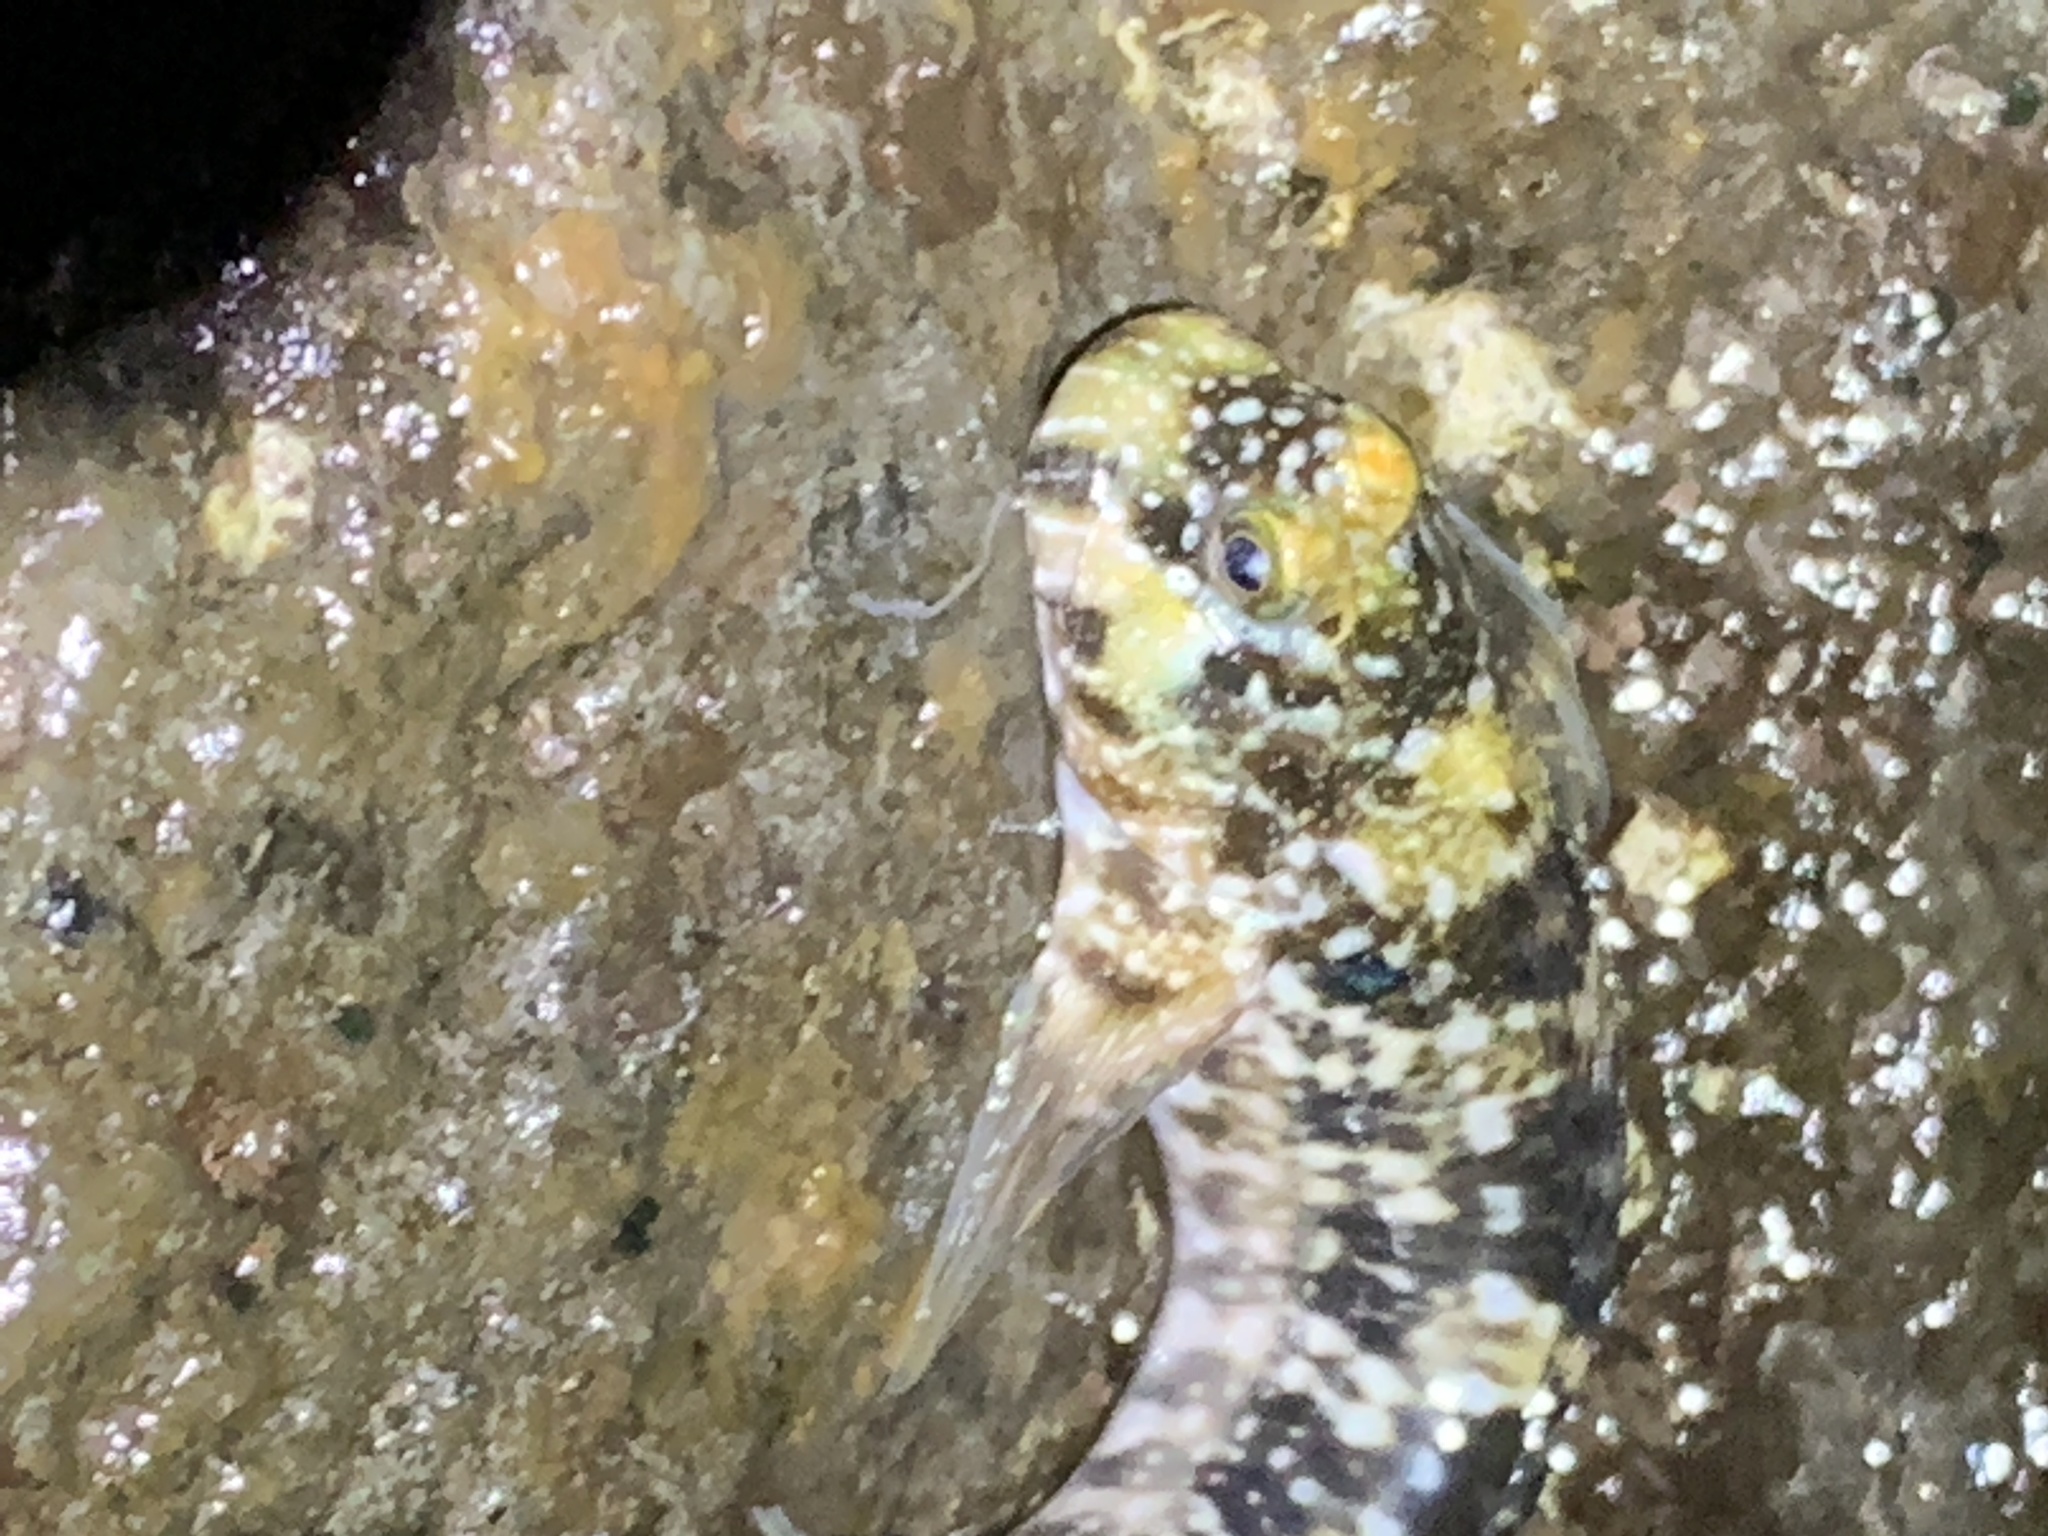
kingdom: Animalia
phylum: Chordata
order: Perciformes
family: Blenniidae
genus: Entomacrodus
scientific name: Entomacrodus marmoratus
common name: Marbled blenny
